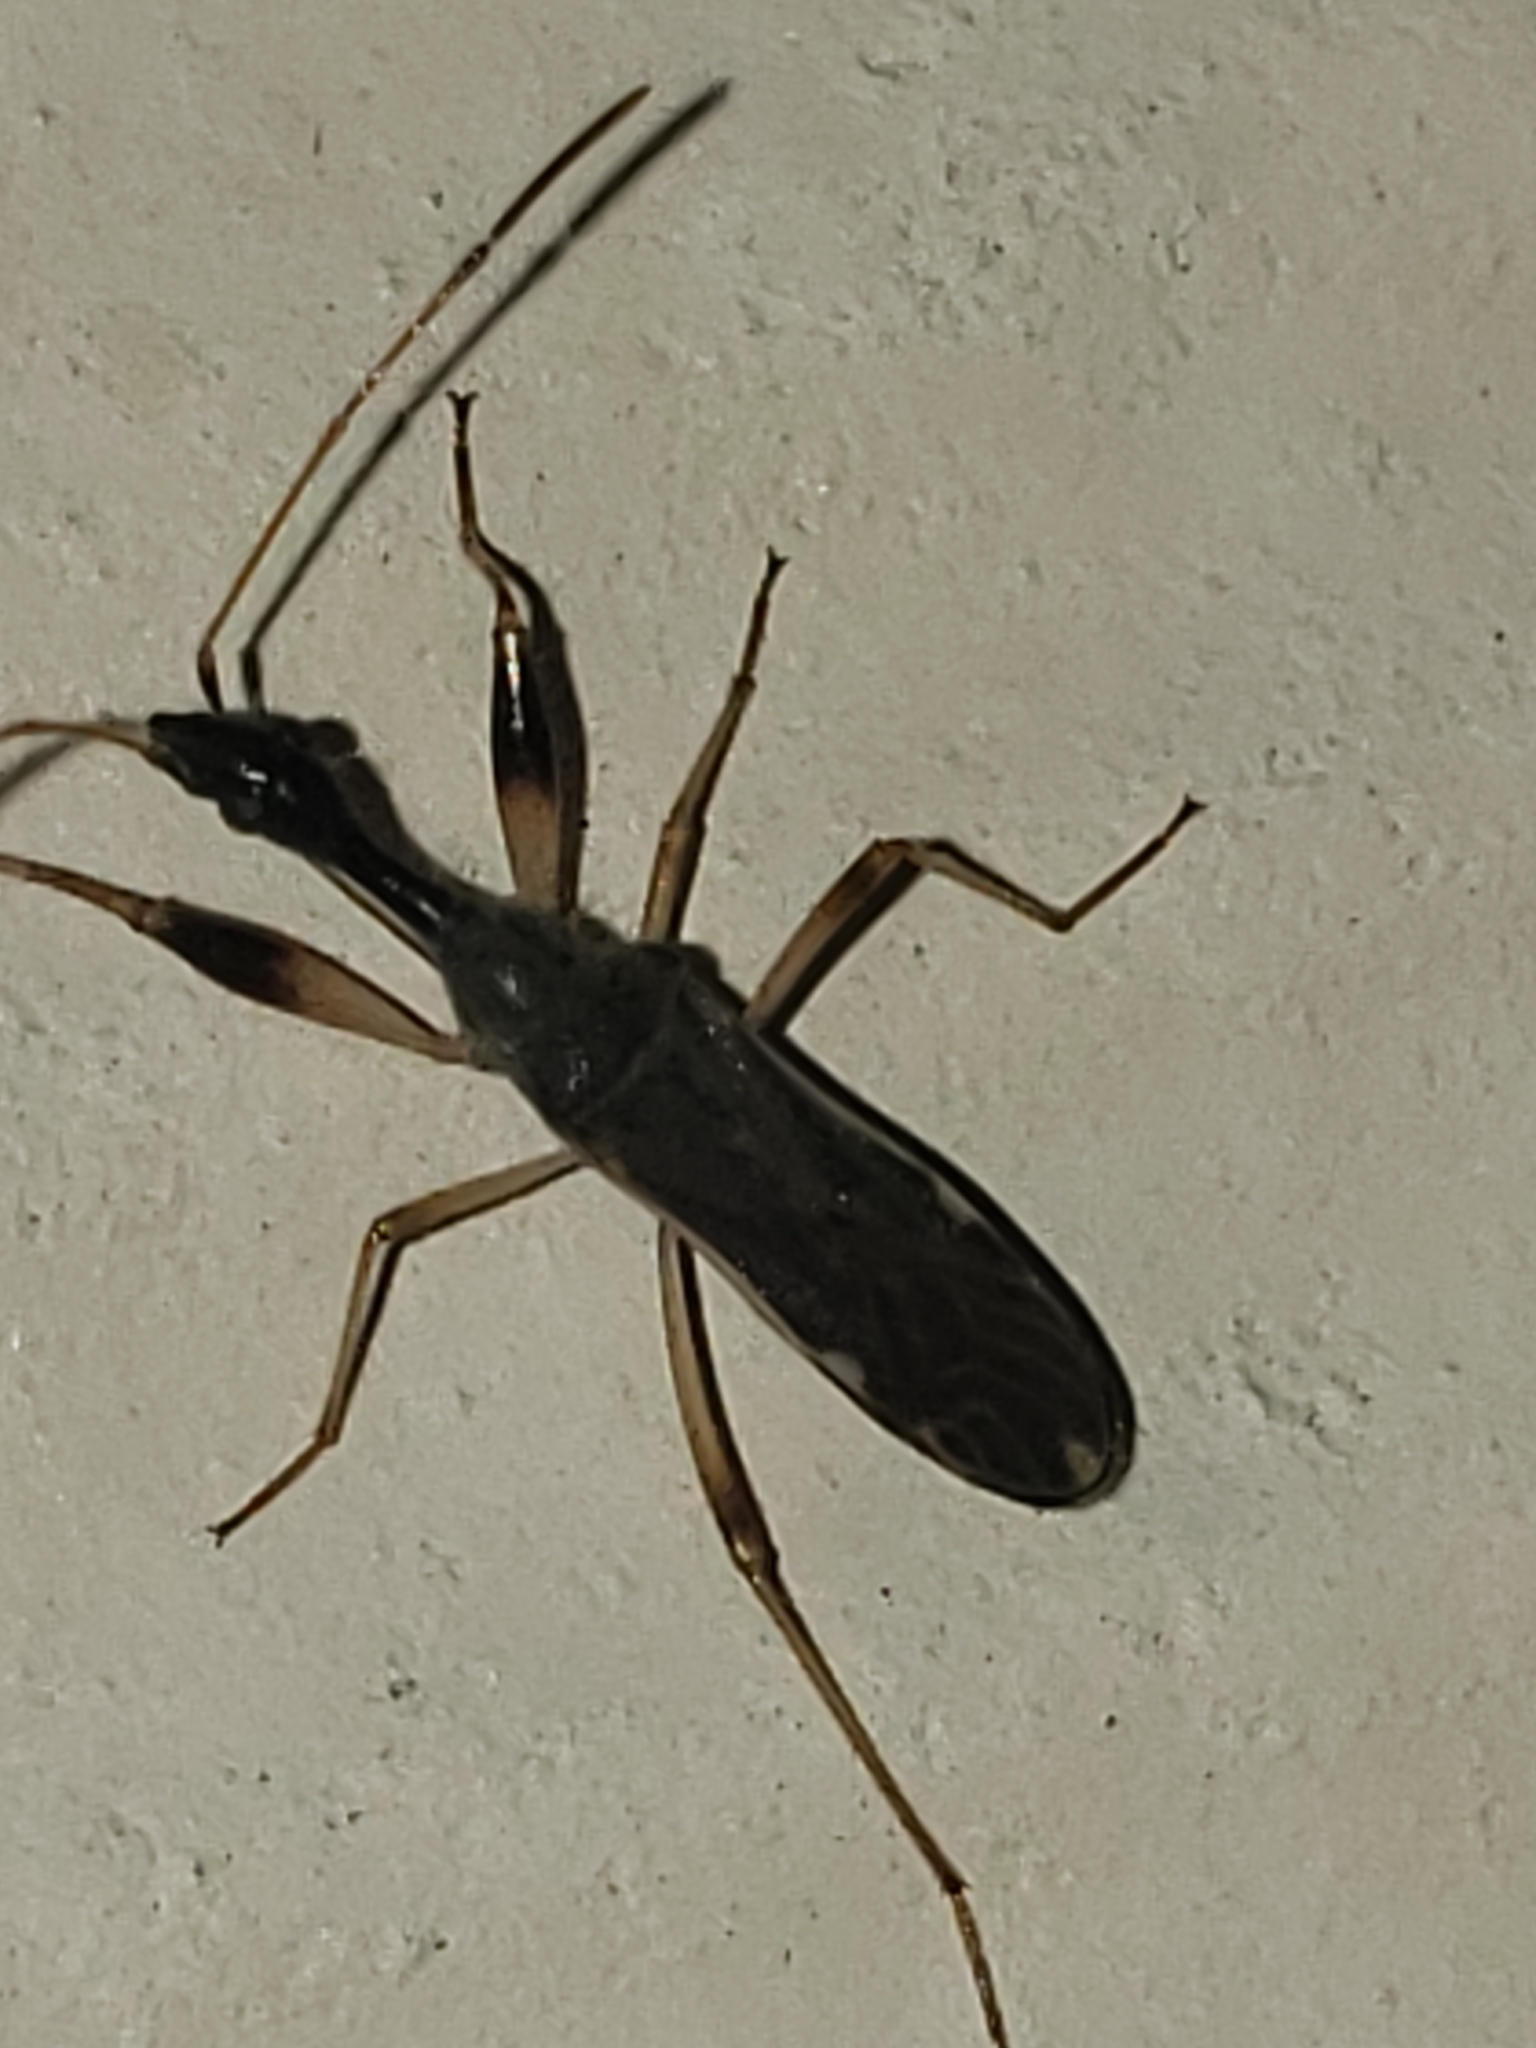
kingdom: Animalia
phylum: Arthropoda
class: Insecta
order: Hemiptera
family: Rhyparochromidae
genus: Myodocha
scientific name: Myodocha serripes
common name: Long-necked seed bug
